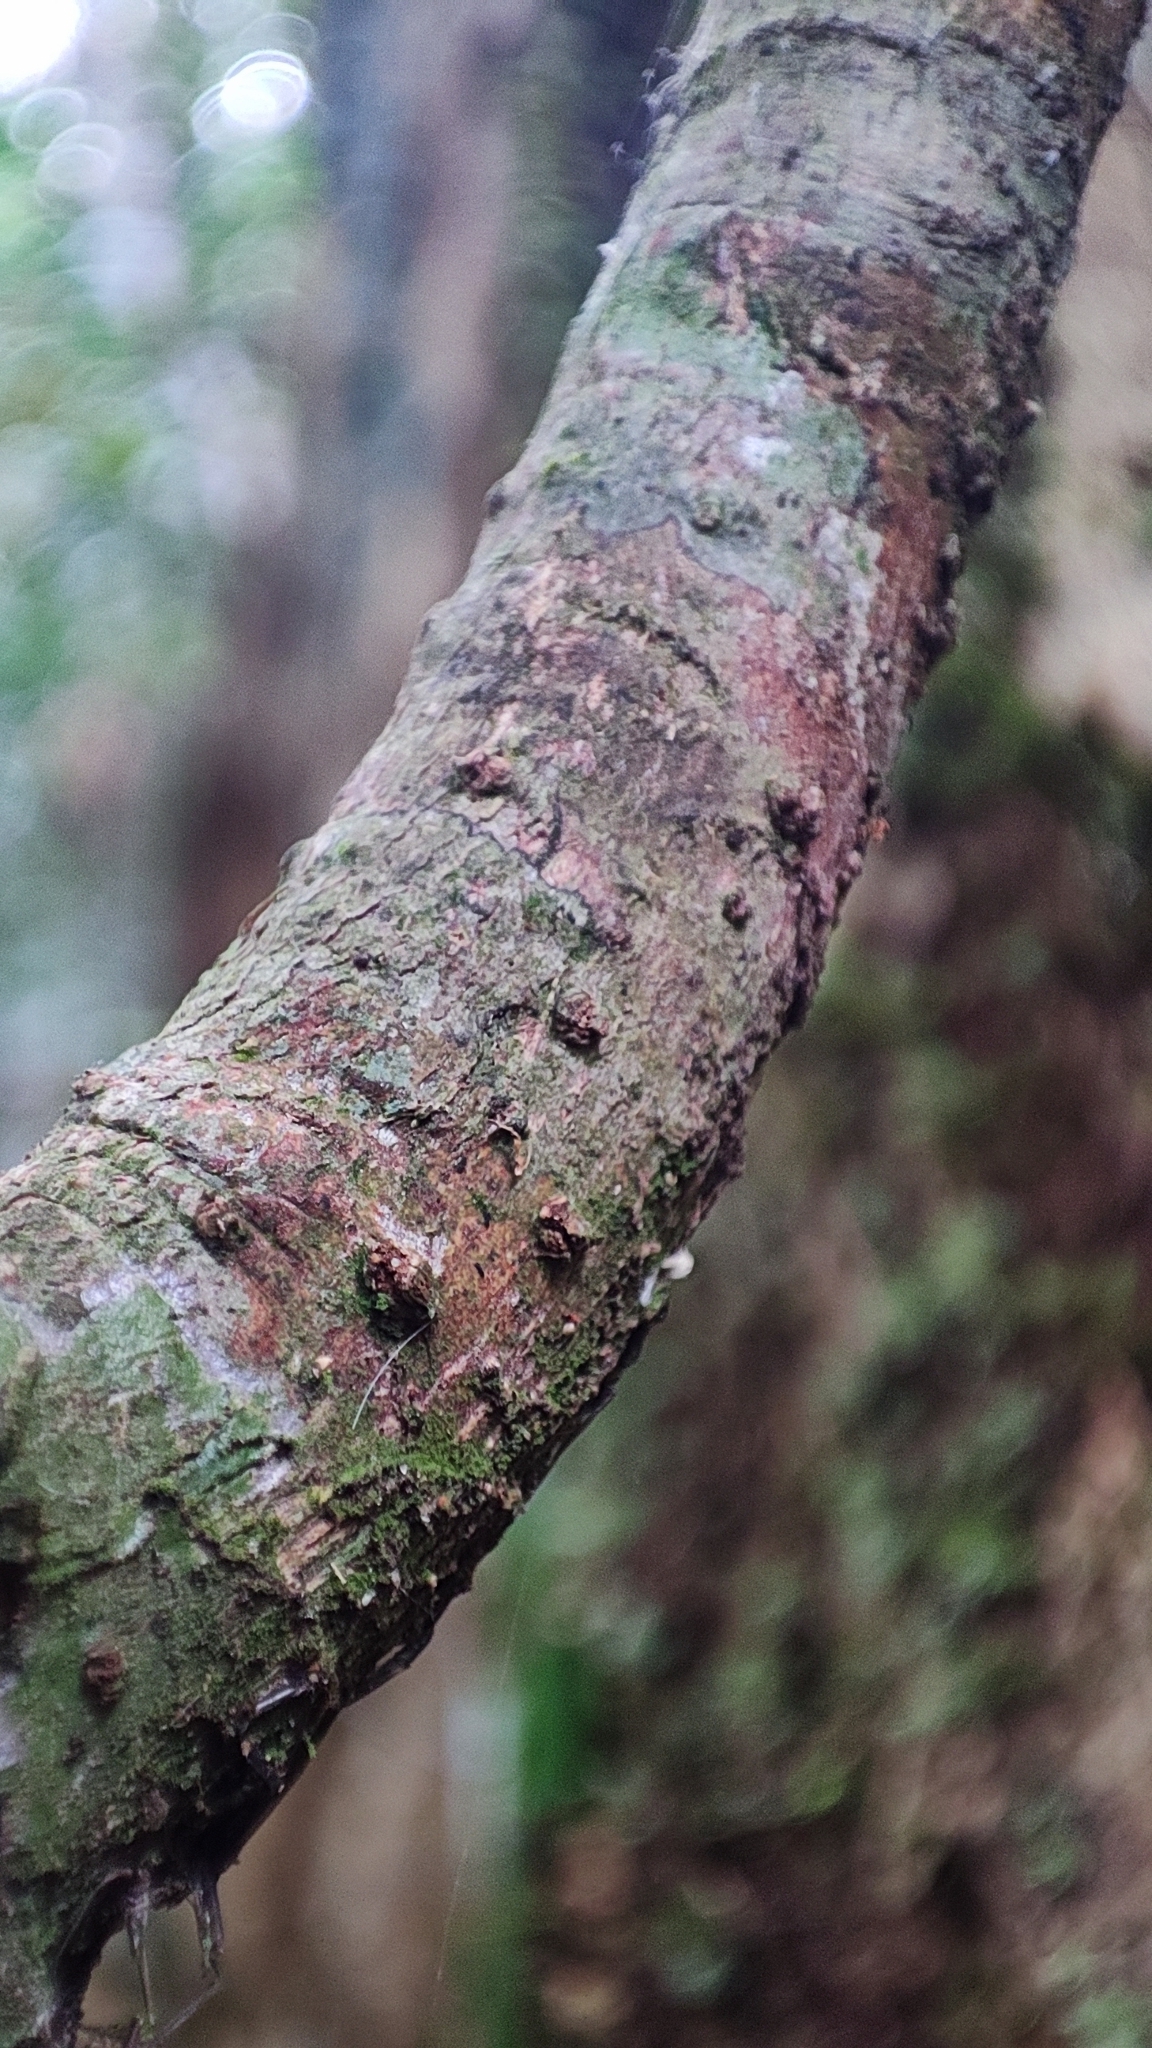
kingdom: Plantae
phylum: Tracheophyta
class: Magnoliopsida
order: Laurales
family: Lauraceae
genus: Actinodaphne
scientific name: Actinodaphne bourdillonii
